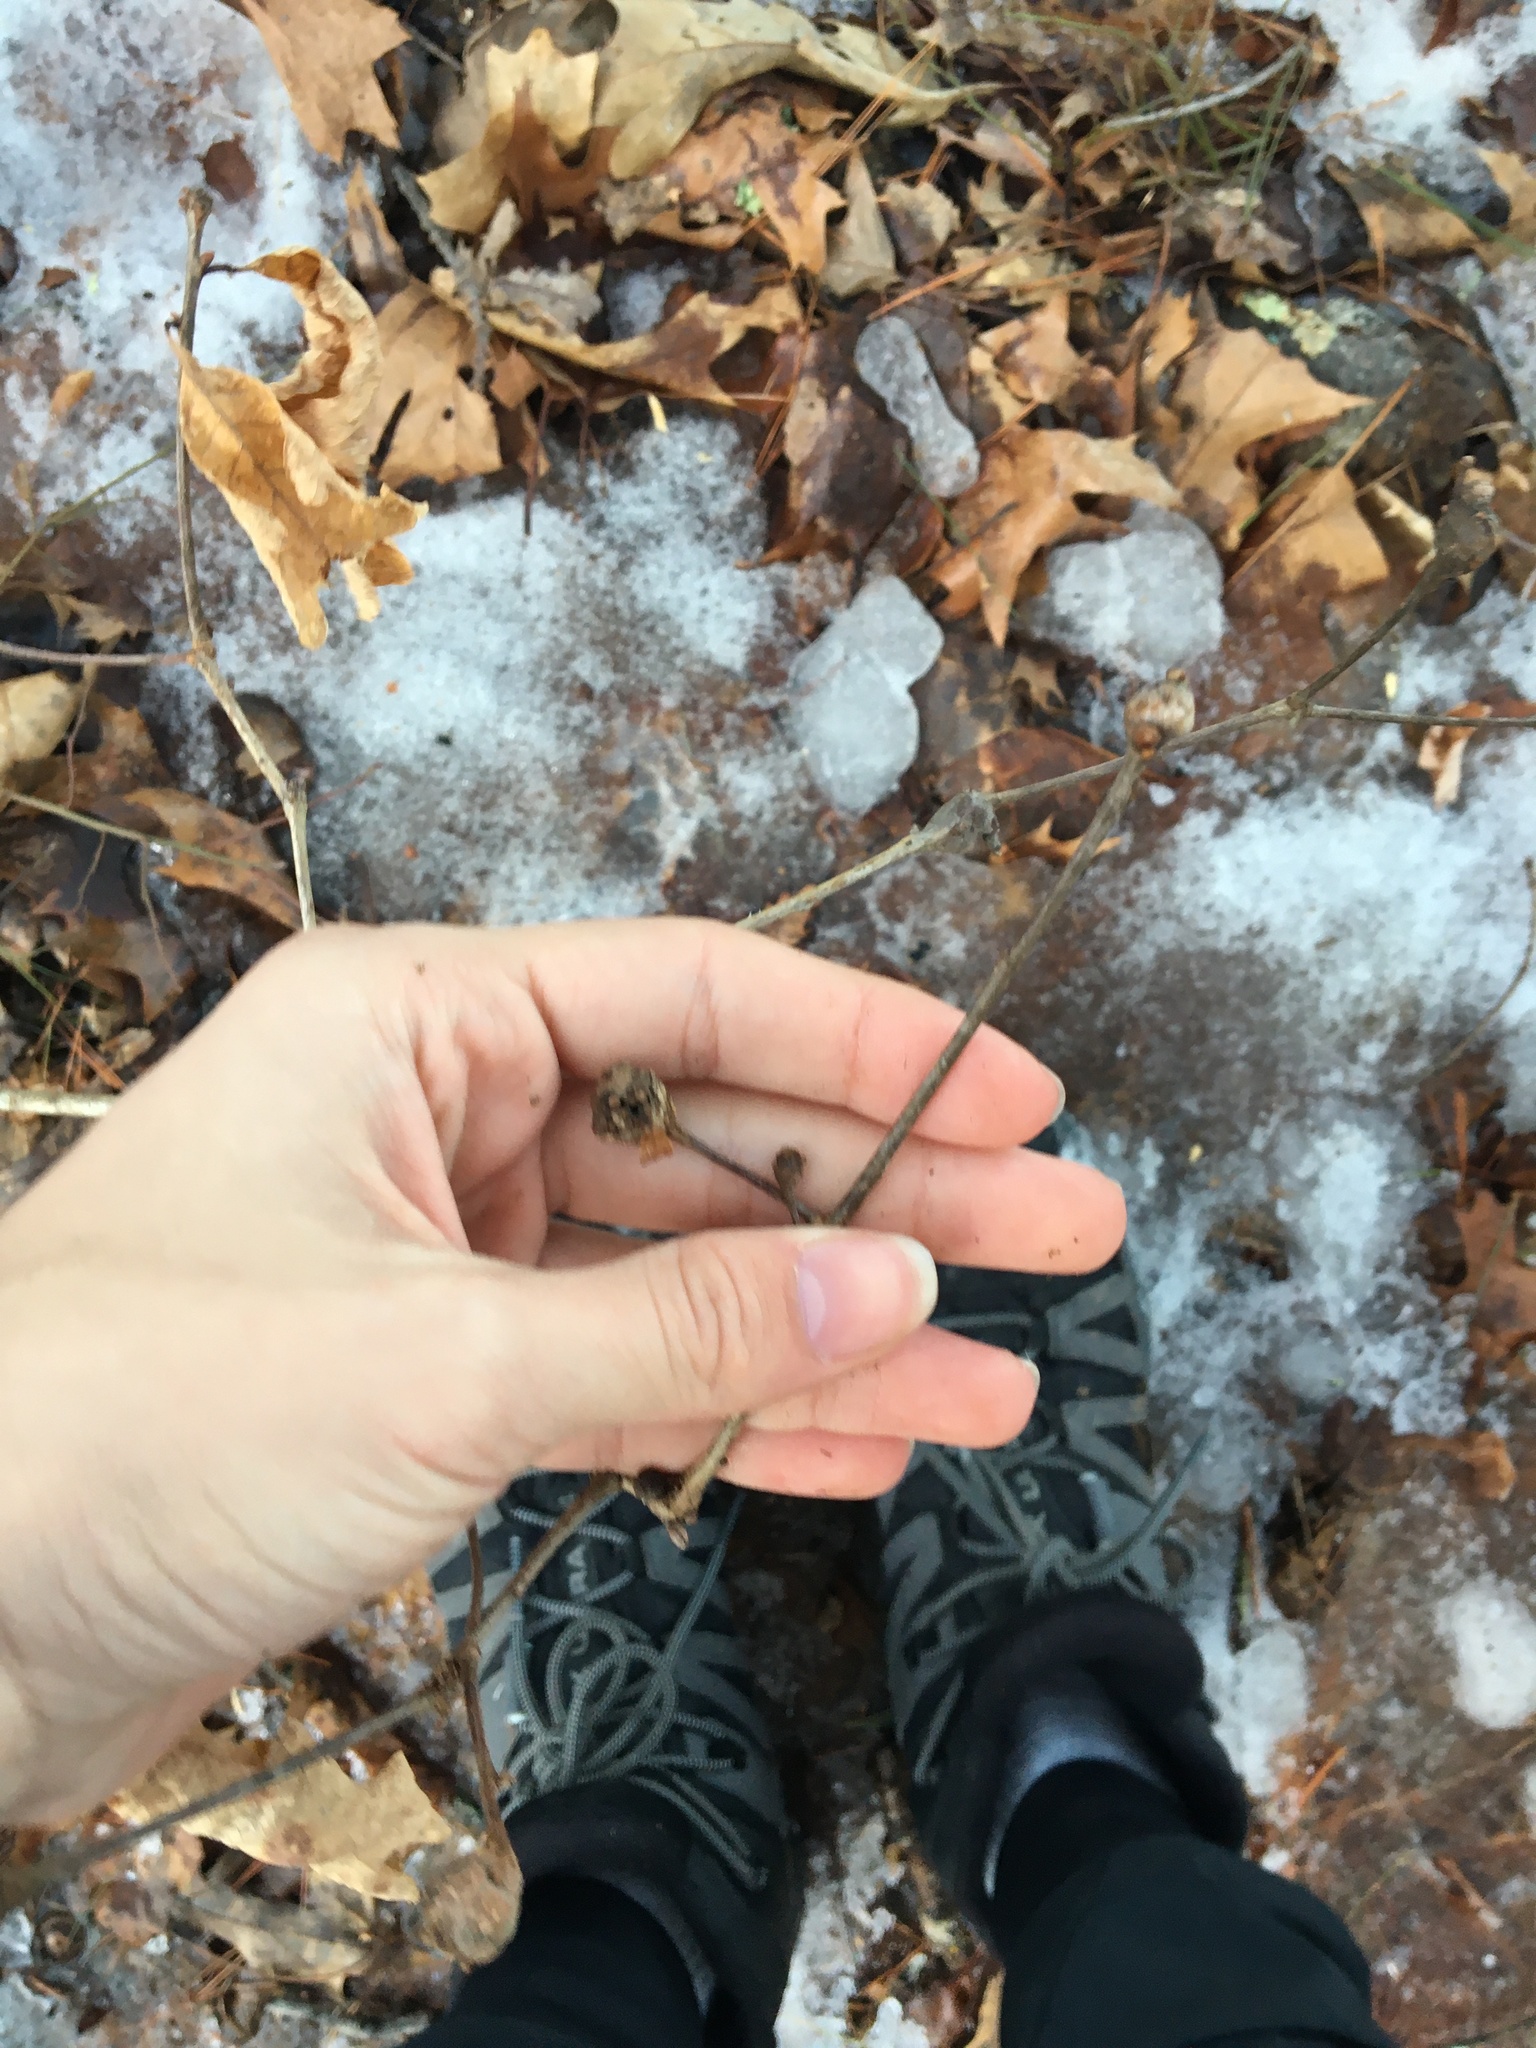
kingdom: Plantae
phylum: Tracheophyta
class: Magnoliopsida
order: Fagales
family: Fagaceae
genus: Quercus
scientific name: Quercus alba
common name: White oak
